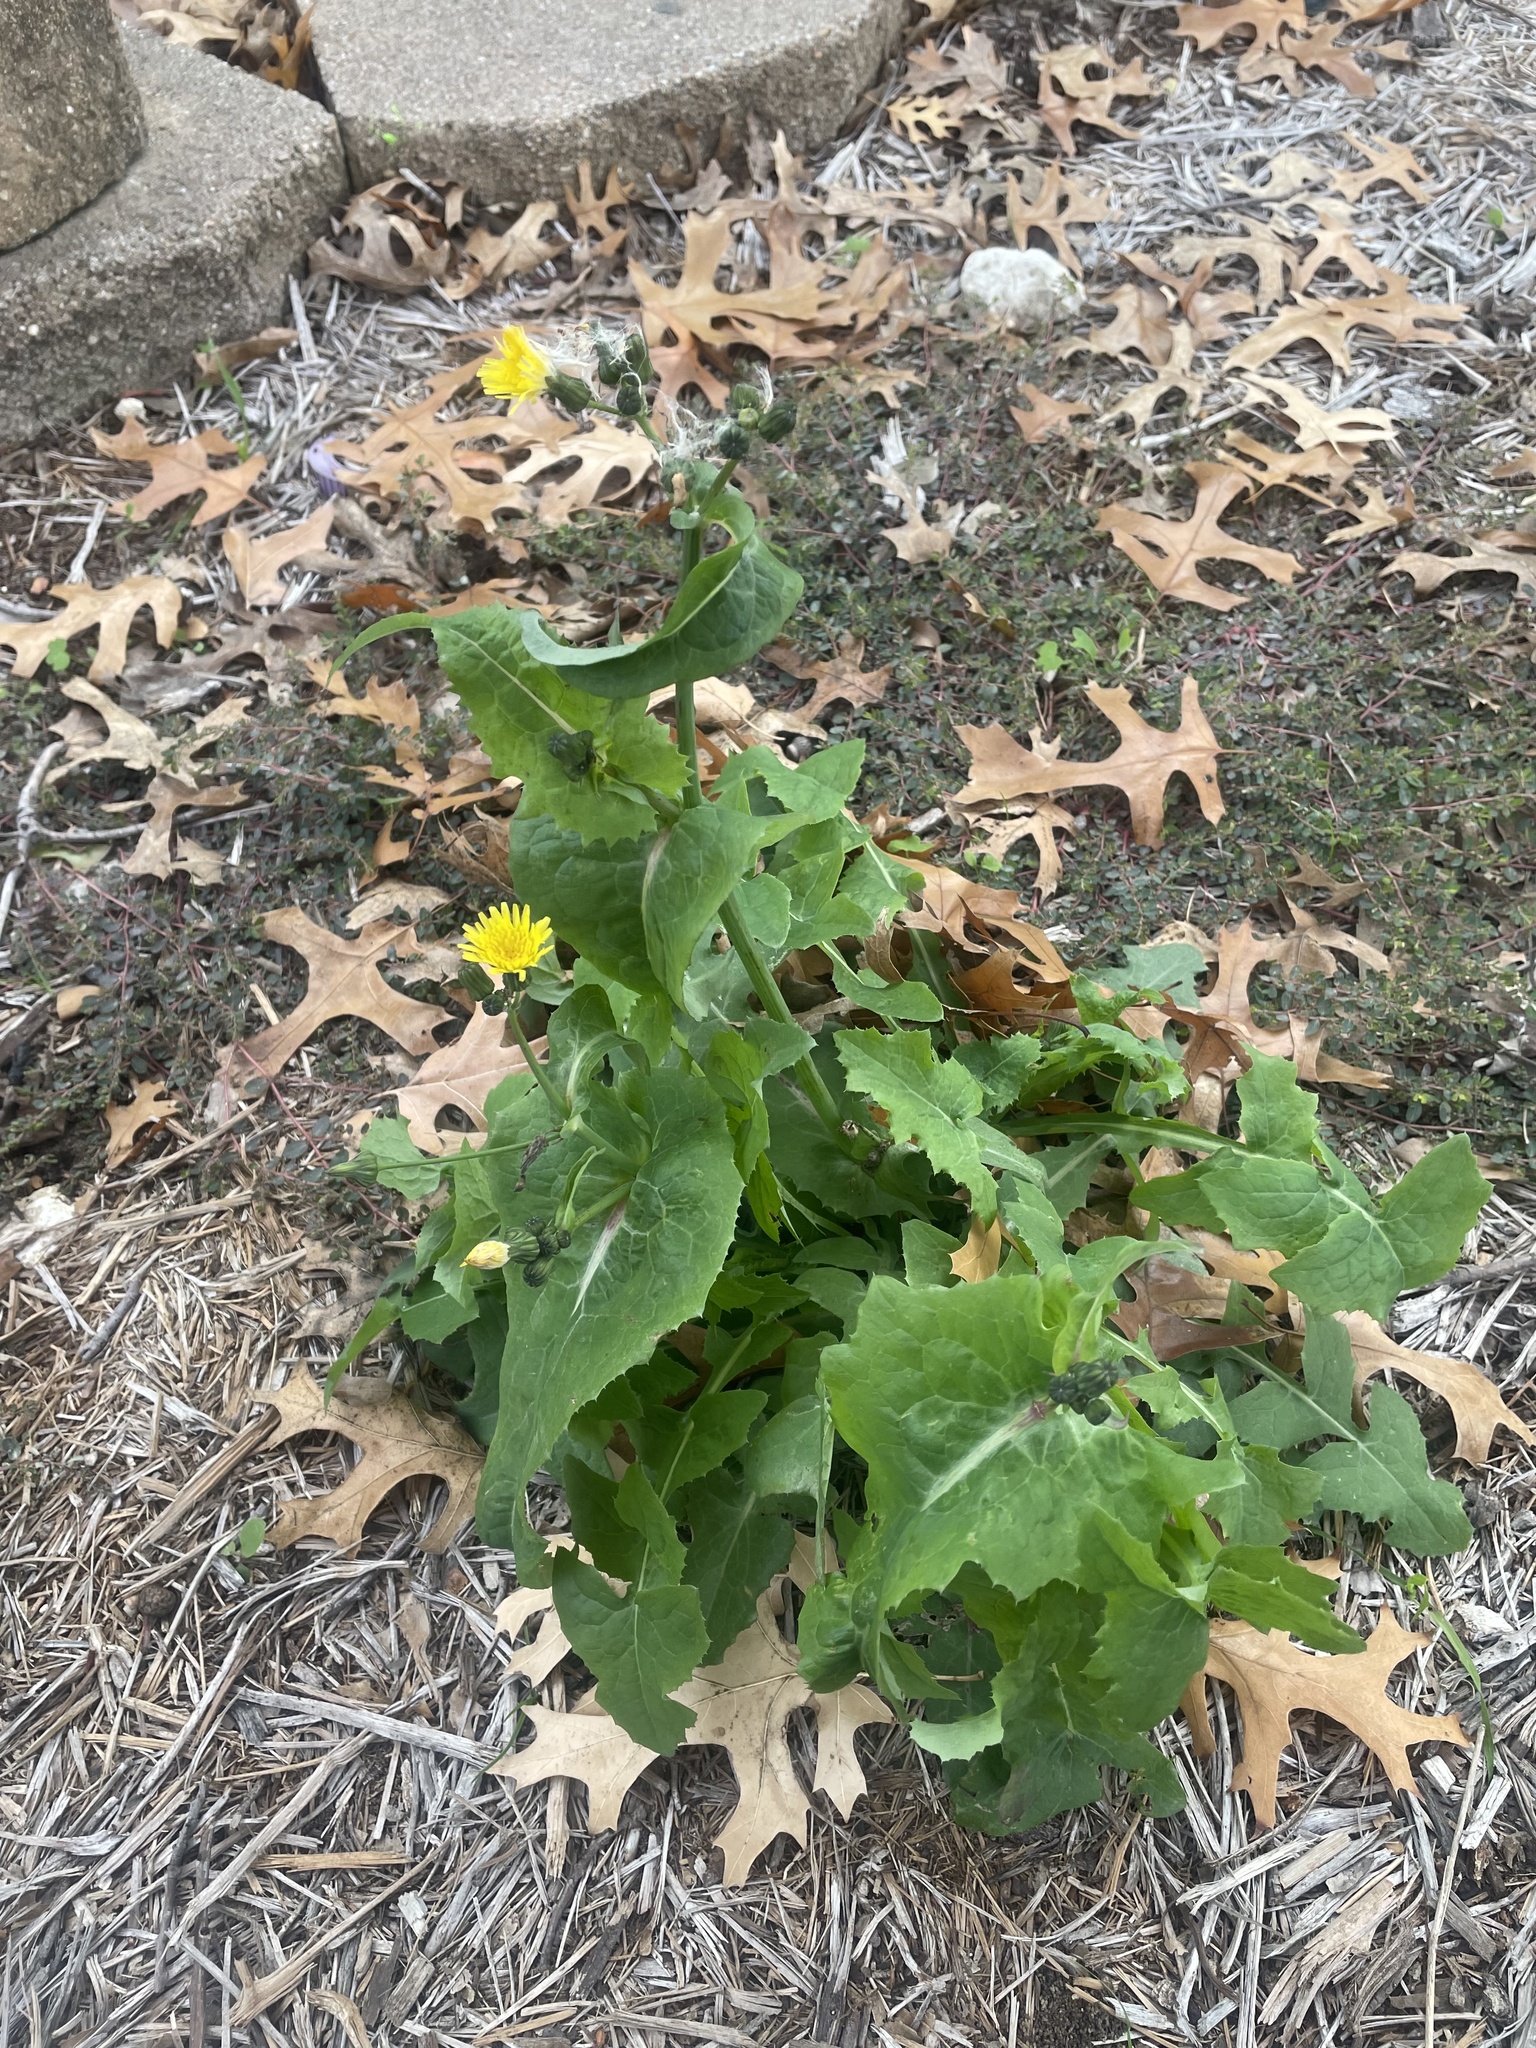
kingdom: Plantae
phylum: Tracheophyta
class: Magnoliopsida
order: Asterales
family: Asteraceae
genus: Sonchus
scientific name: Sonchus oleraceus
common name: Common sowthistle
